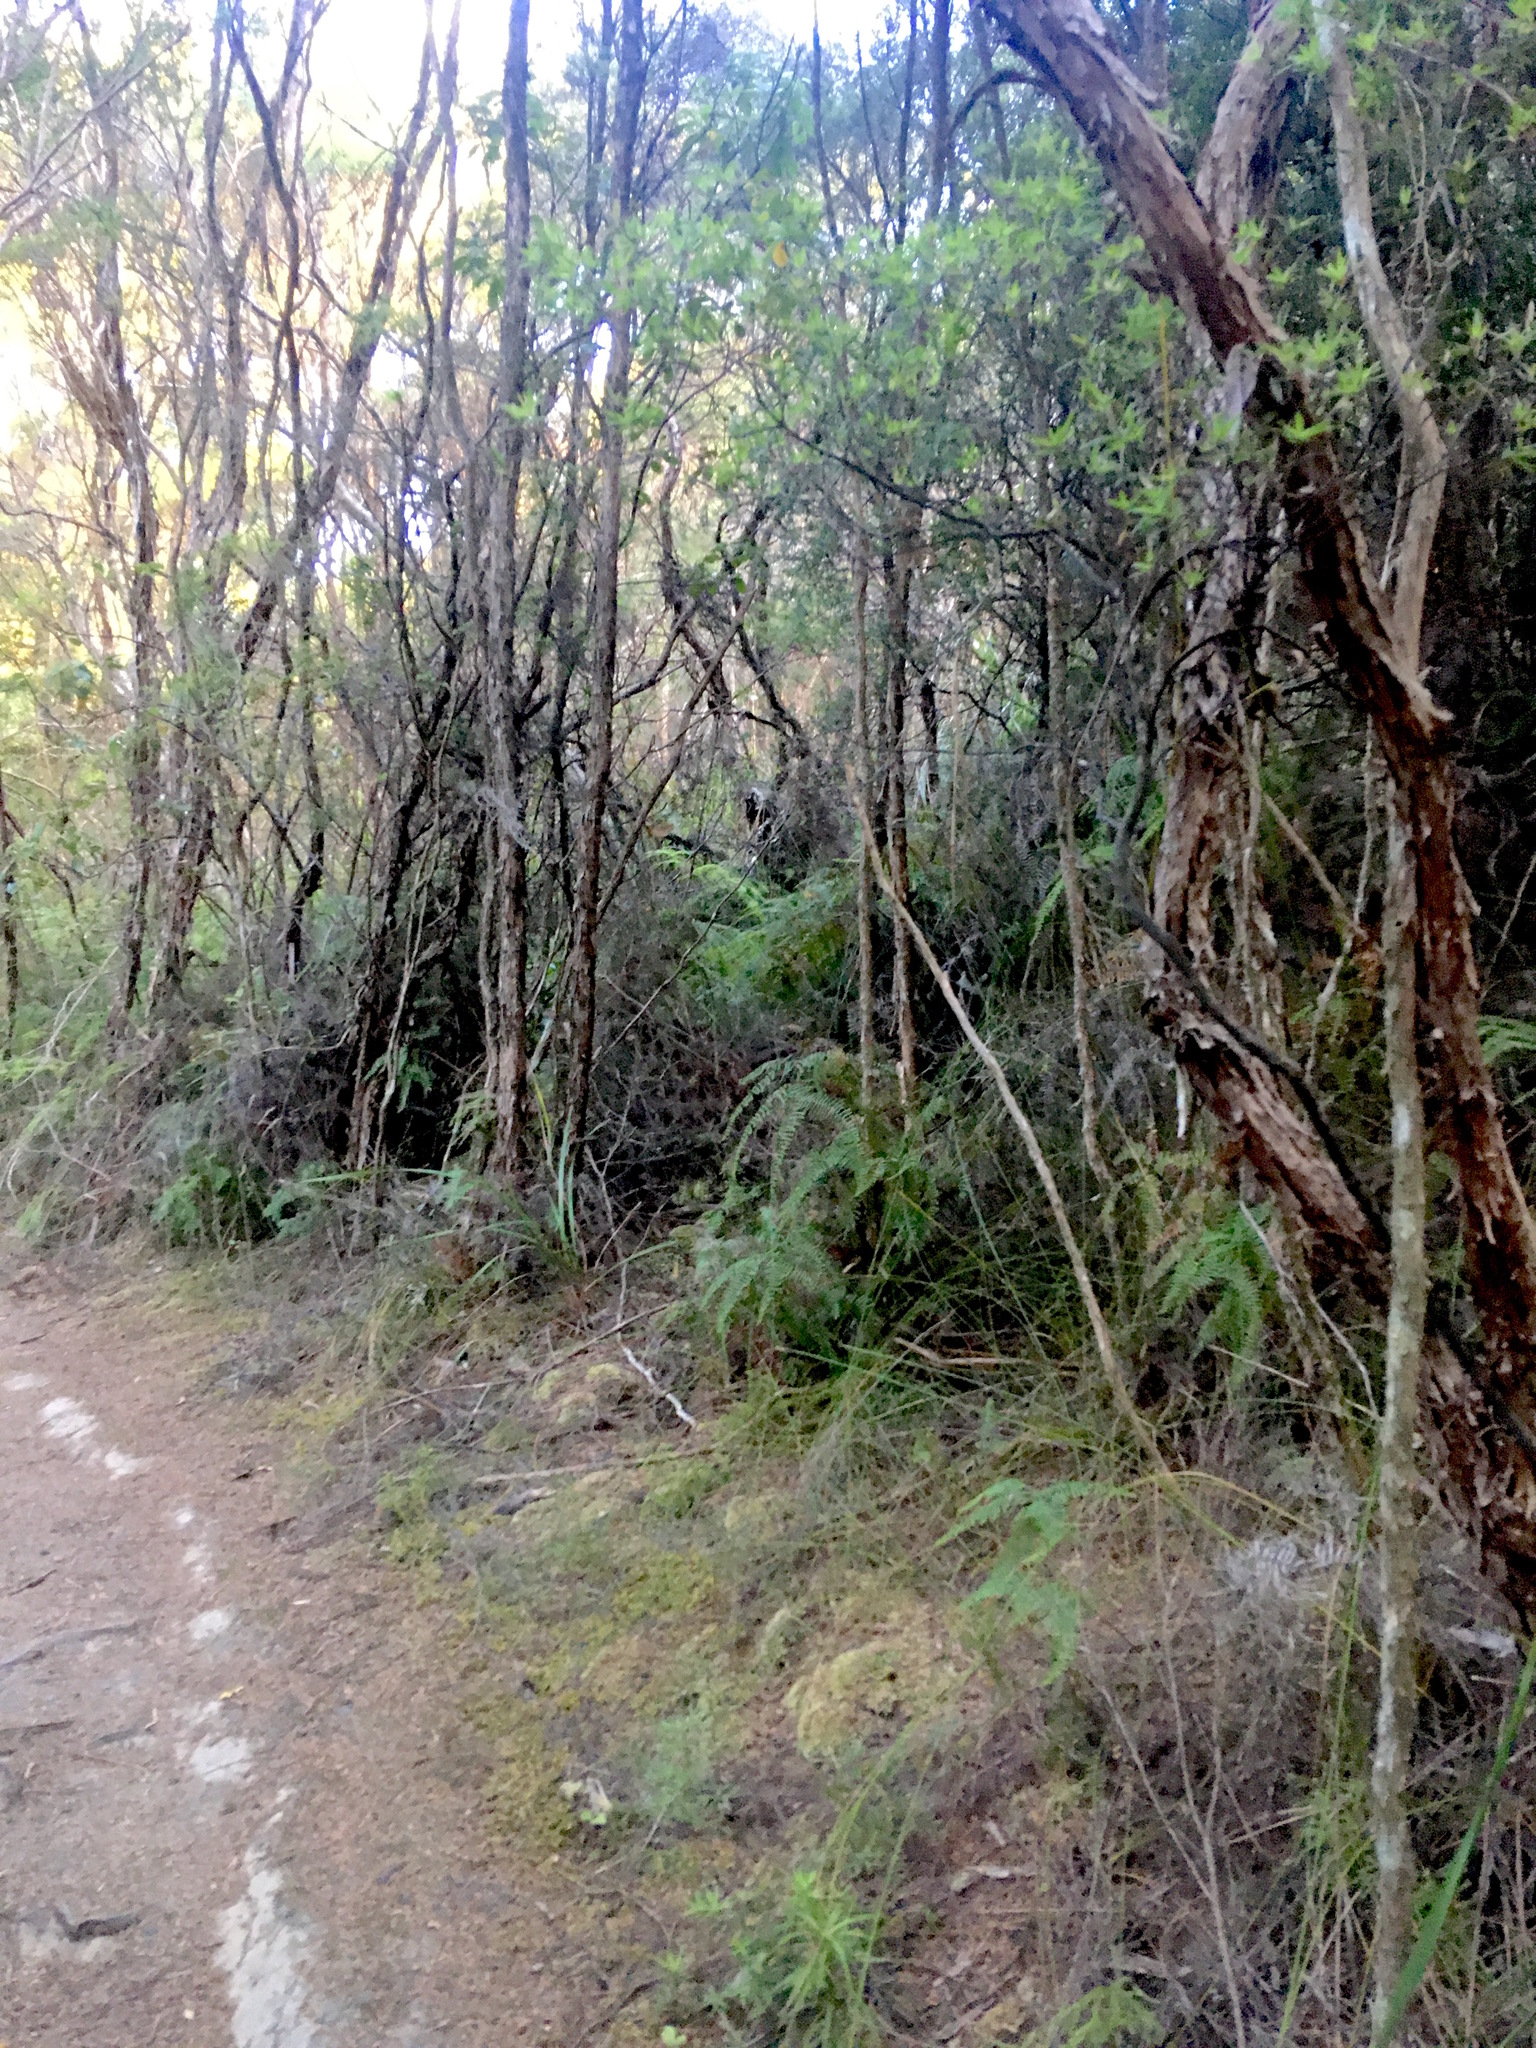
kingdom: Plantae
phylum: Tracheophyta
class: Liliopsida
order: Poales
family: Cyperaceae
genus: Schoenus
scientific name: Schoenus tendo
